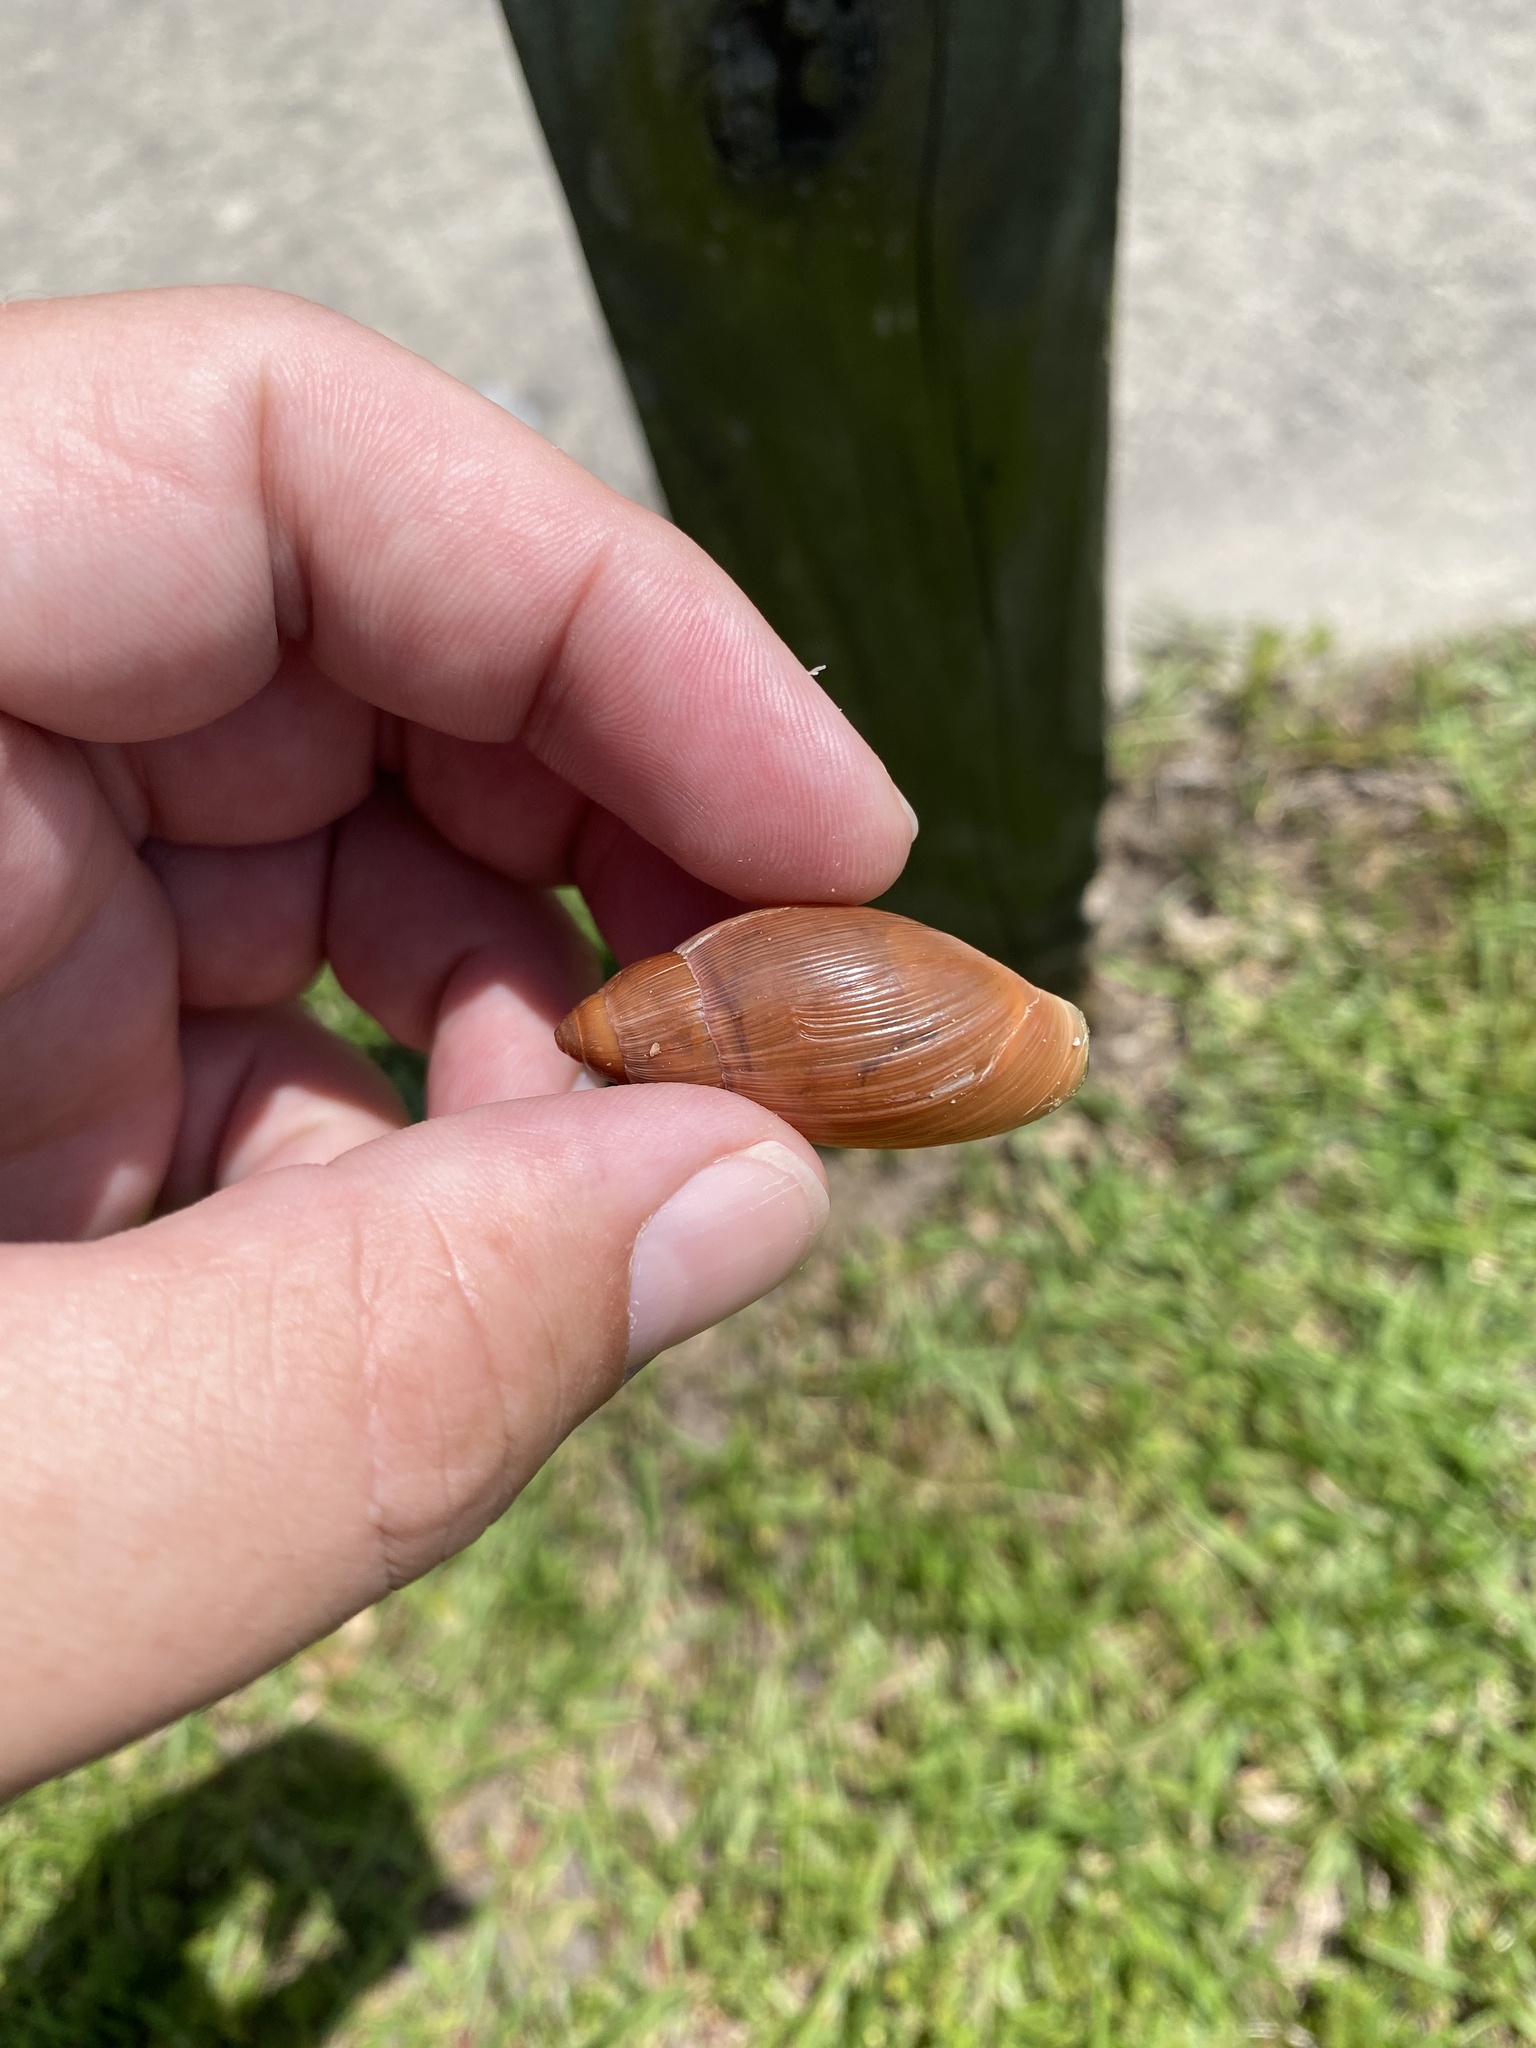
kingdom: Animalia
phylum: Mollusca
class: Gastropoda
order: Stylommatophora
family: Spiraxidae
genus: Euglandina
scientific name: Euglandina rosea
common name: Rosy wolfsnail
